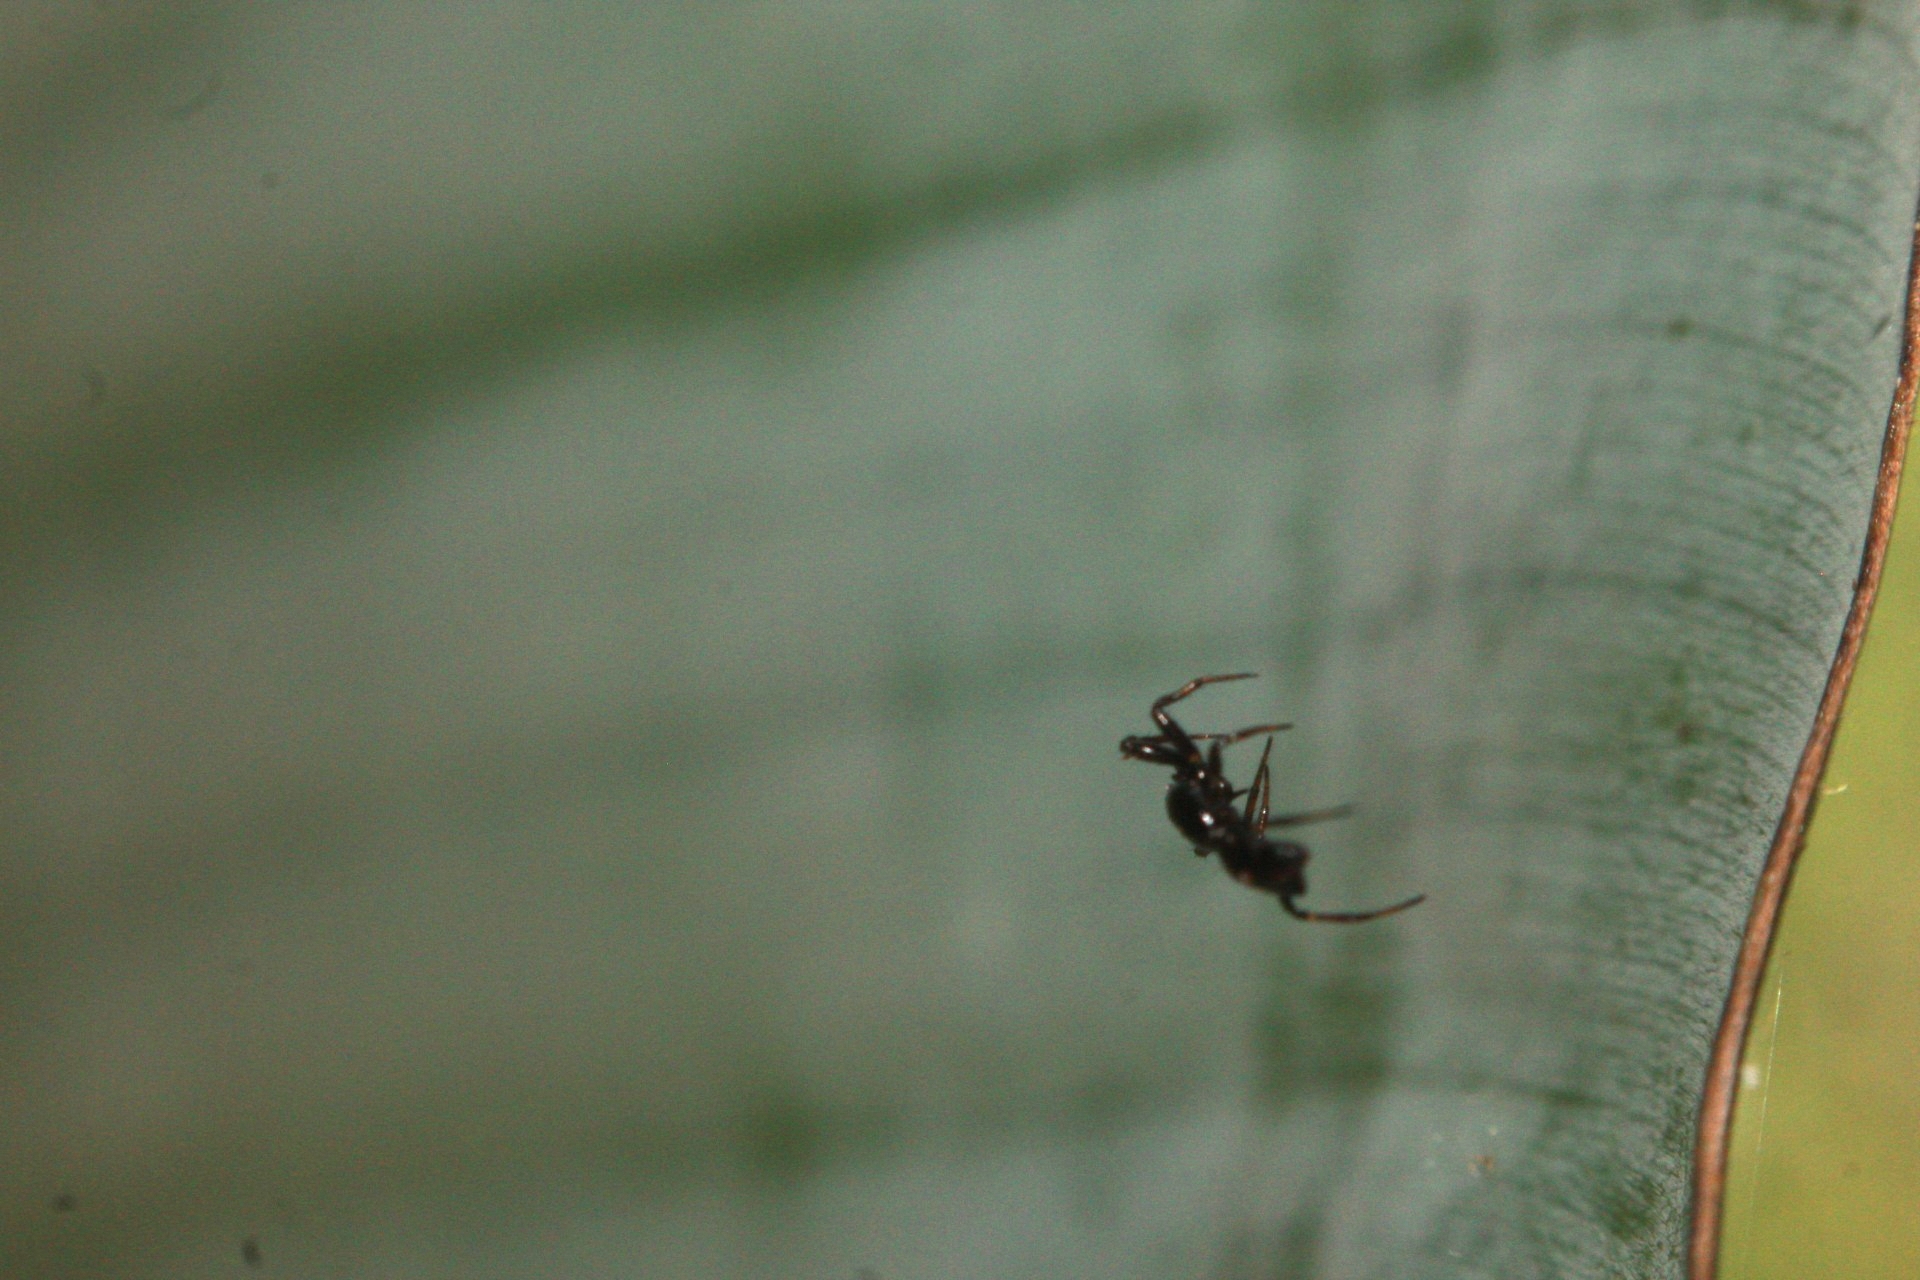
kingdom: Animalia
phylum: Arthropoda
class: Arachnida
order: Araneae
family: Araneidae
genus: Micrathena
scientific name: Micrathena triangularispinosa
